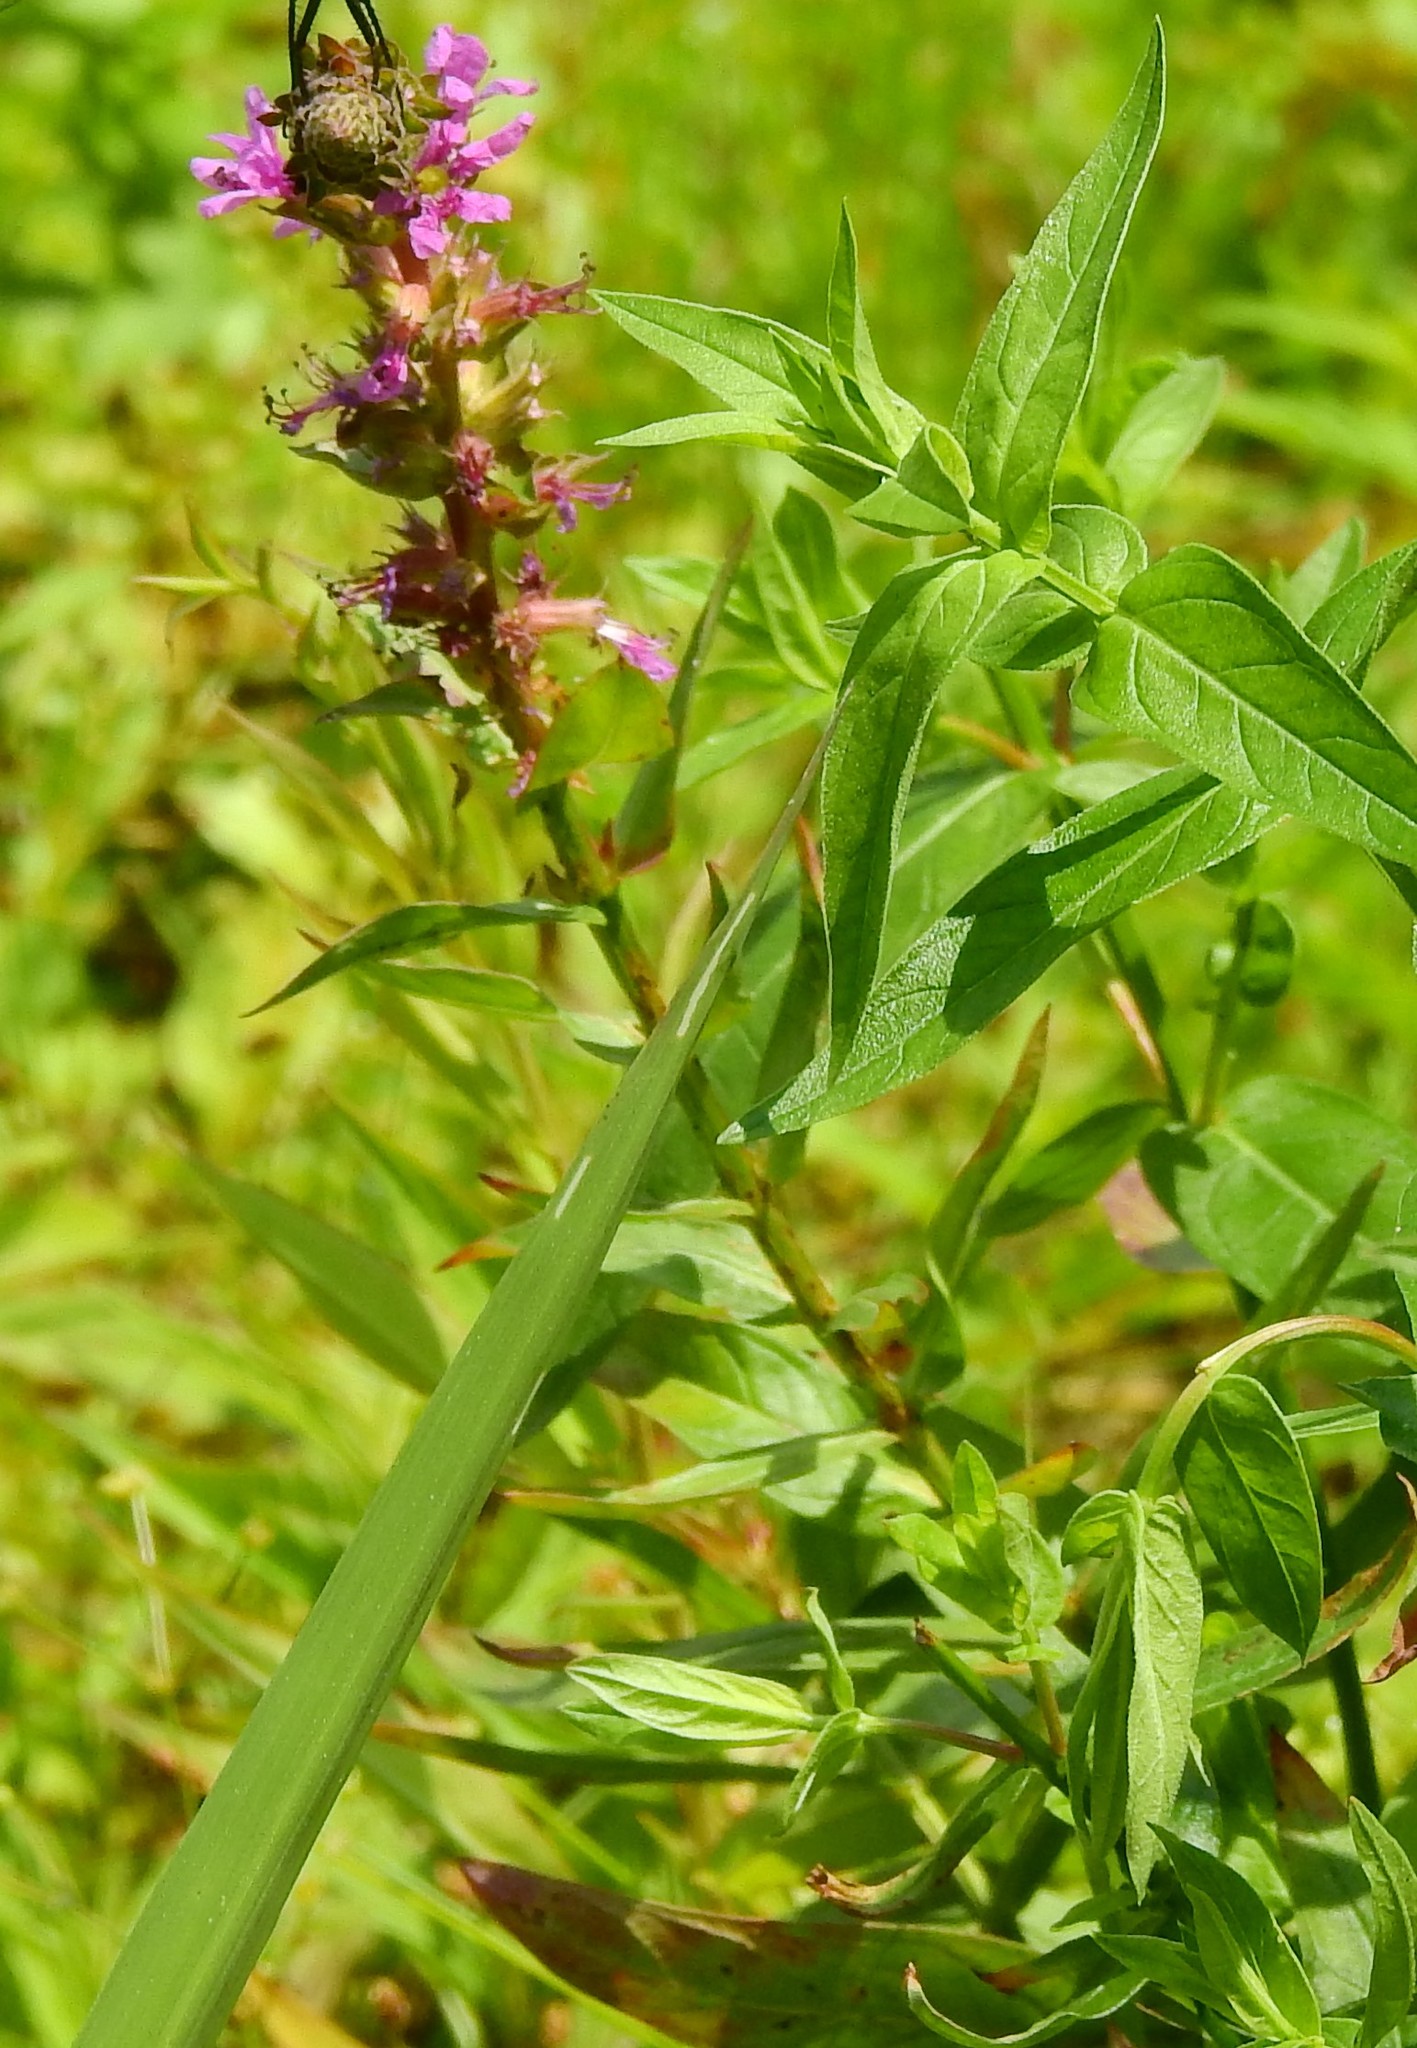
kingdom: Plantae
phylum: Tracheophyta
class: Magnoliopsida
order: Myrtales
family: Lythraceae
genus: Lythrum
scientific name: Lythrum salicaria
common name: Purple loosestrife
